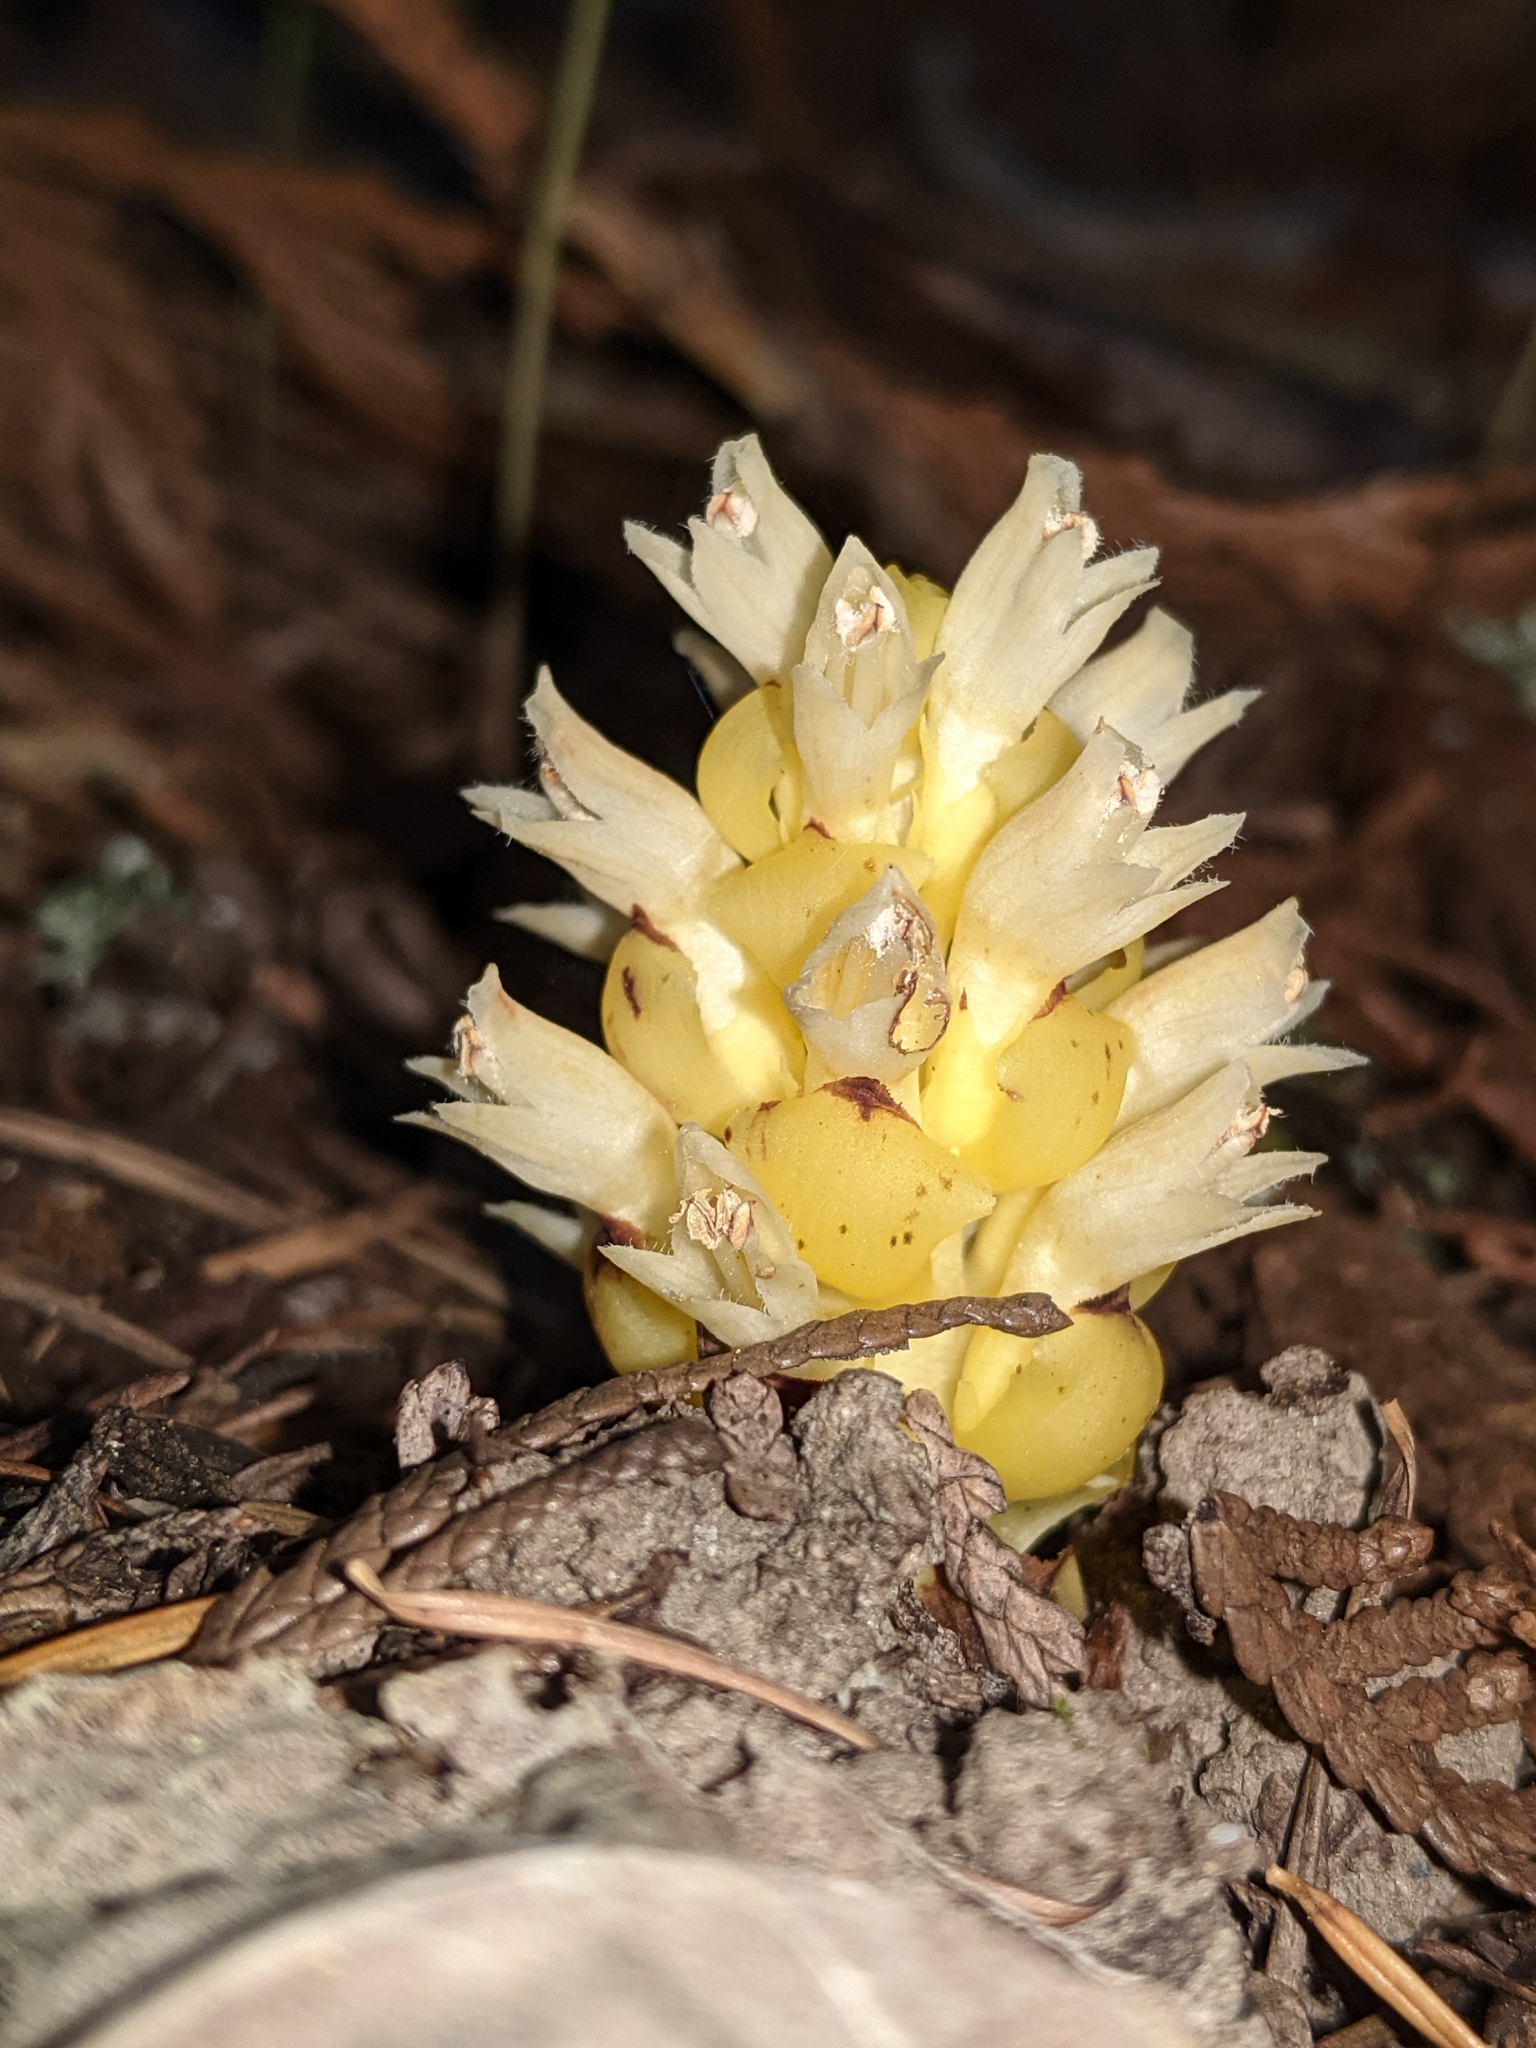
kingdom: Plantae
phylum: Tracheophyta
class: Magnoliopsida
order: Lamiales
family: Orobanchaceae
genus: Kopsiopsis
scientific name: Kopsiopsis hookeri
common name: Hooker's groundcone
